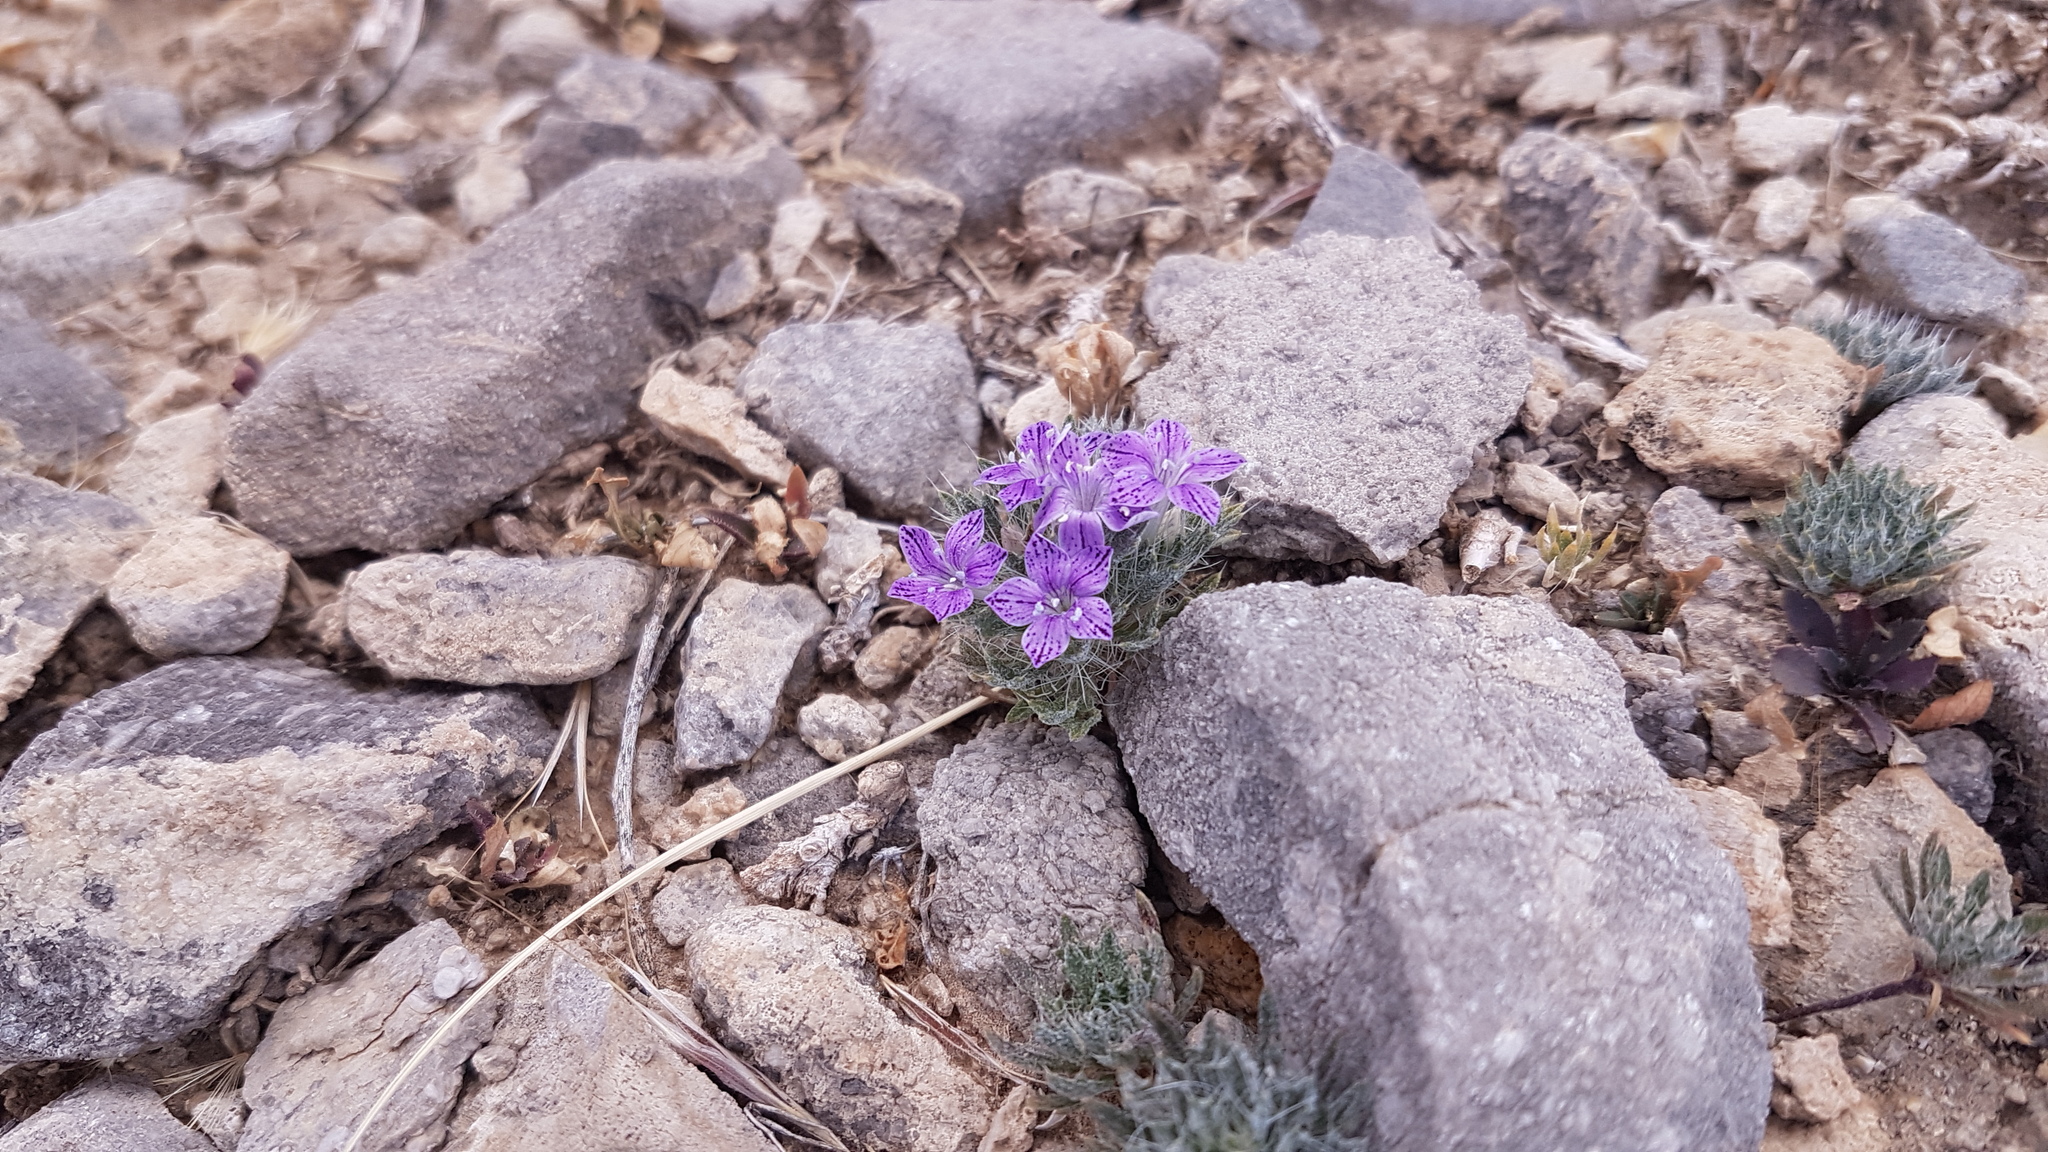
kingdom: Plantae
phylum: Tracheophyta
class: Magnoliopsida
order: Ericales
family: Polemoniaceae
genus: Langloisia
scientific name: Langloisia setosissima
